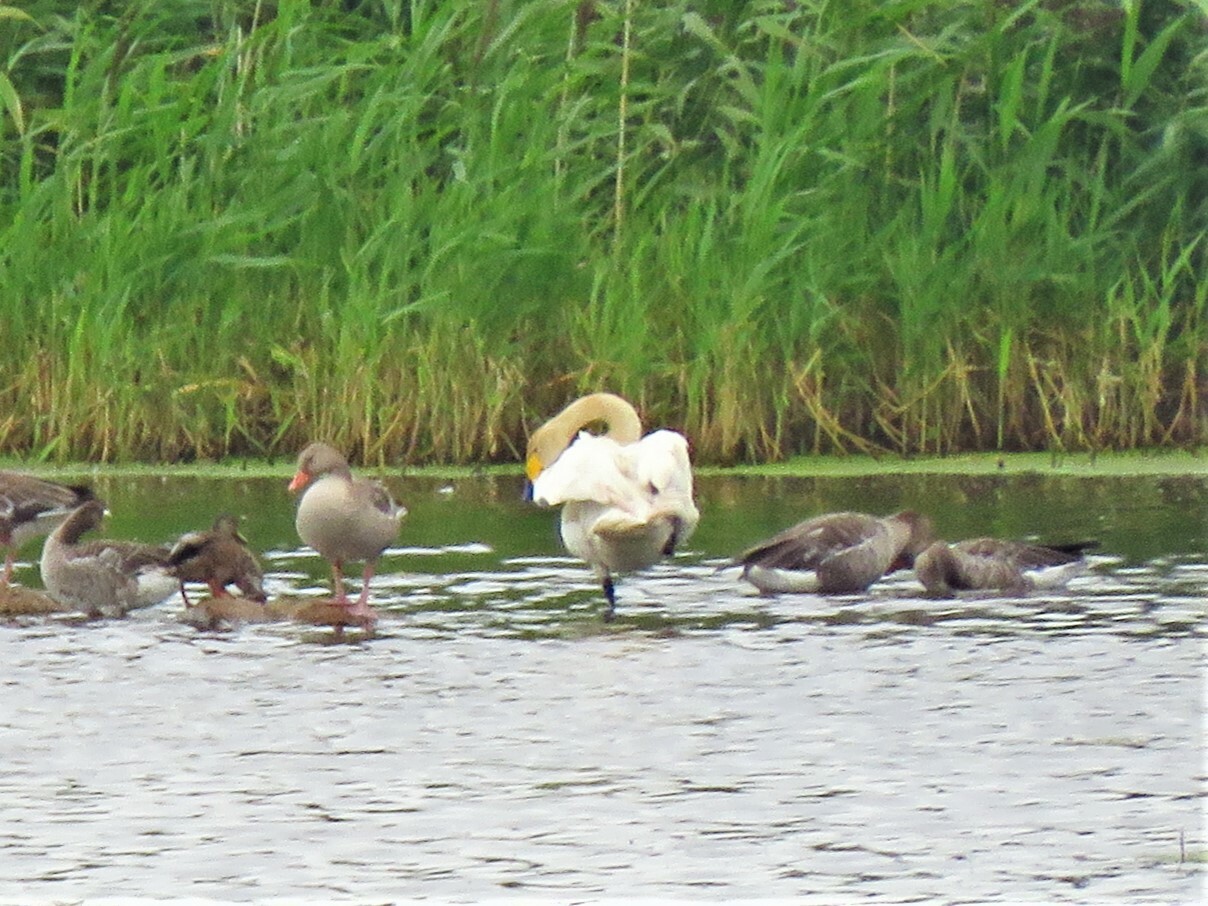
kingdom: Animalia
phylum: Chordata
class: Aves
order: Anseriformes
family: Anatidae
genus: Cygnus
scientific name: Cygnus cygnus
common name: Whooper swan
